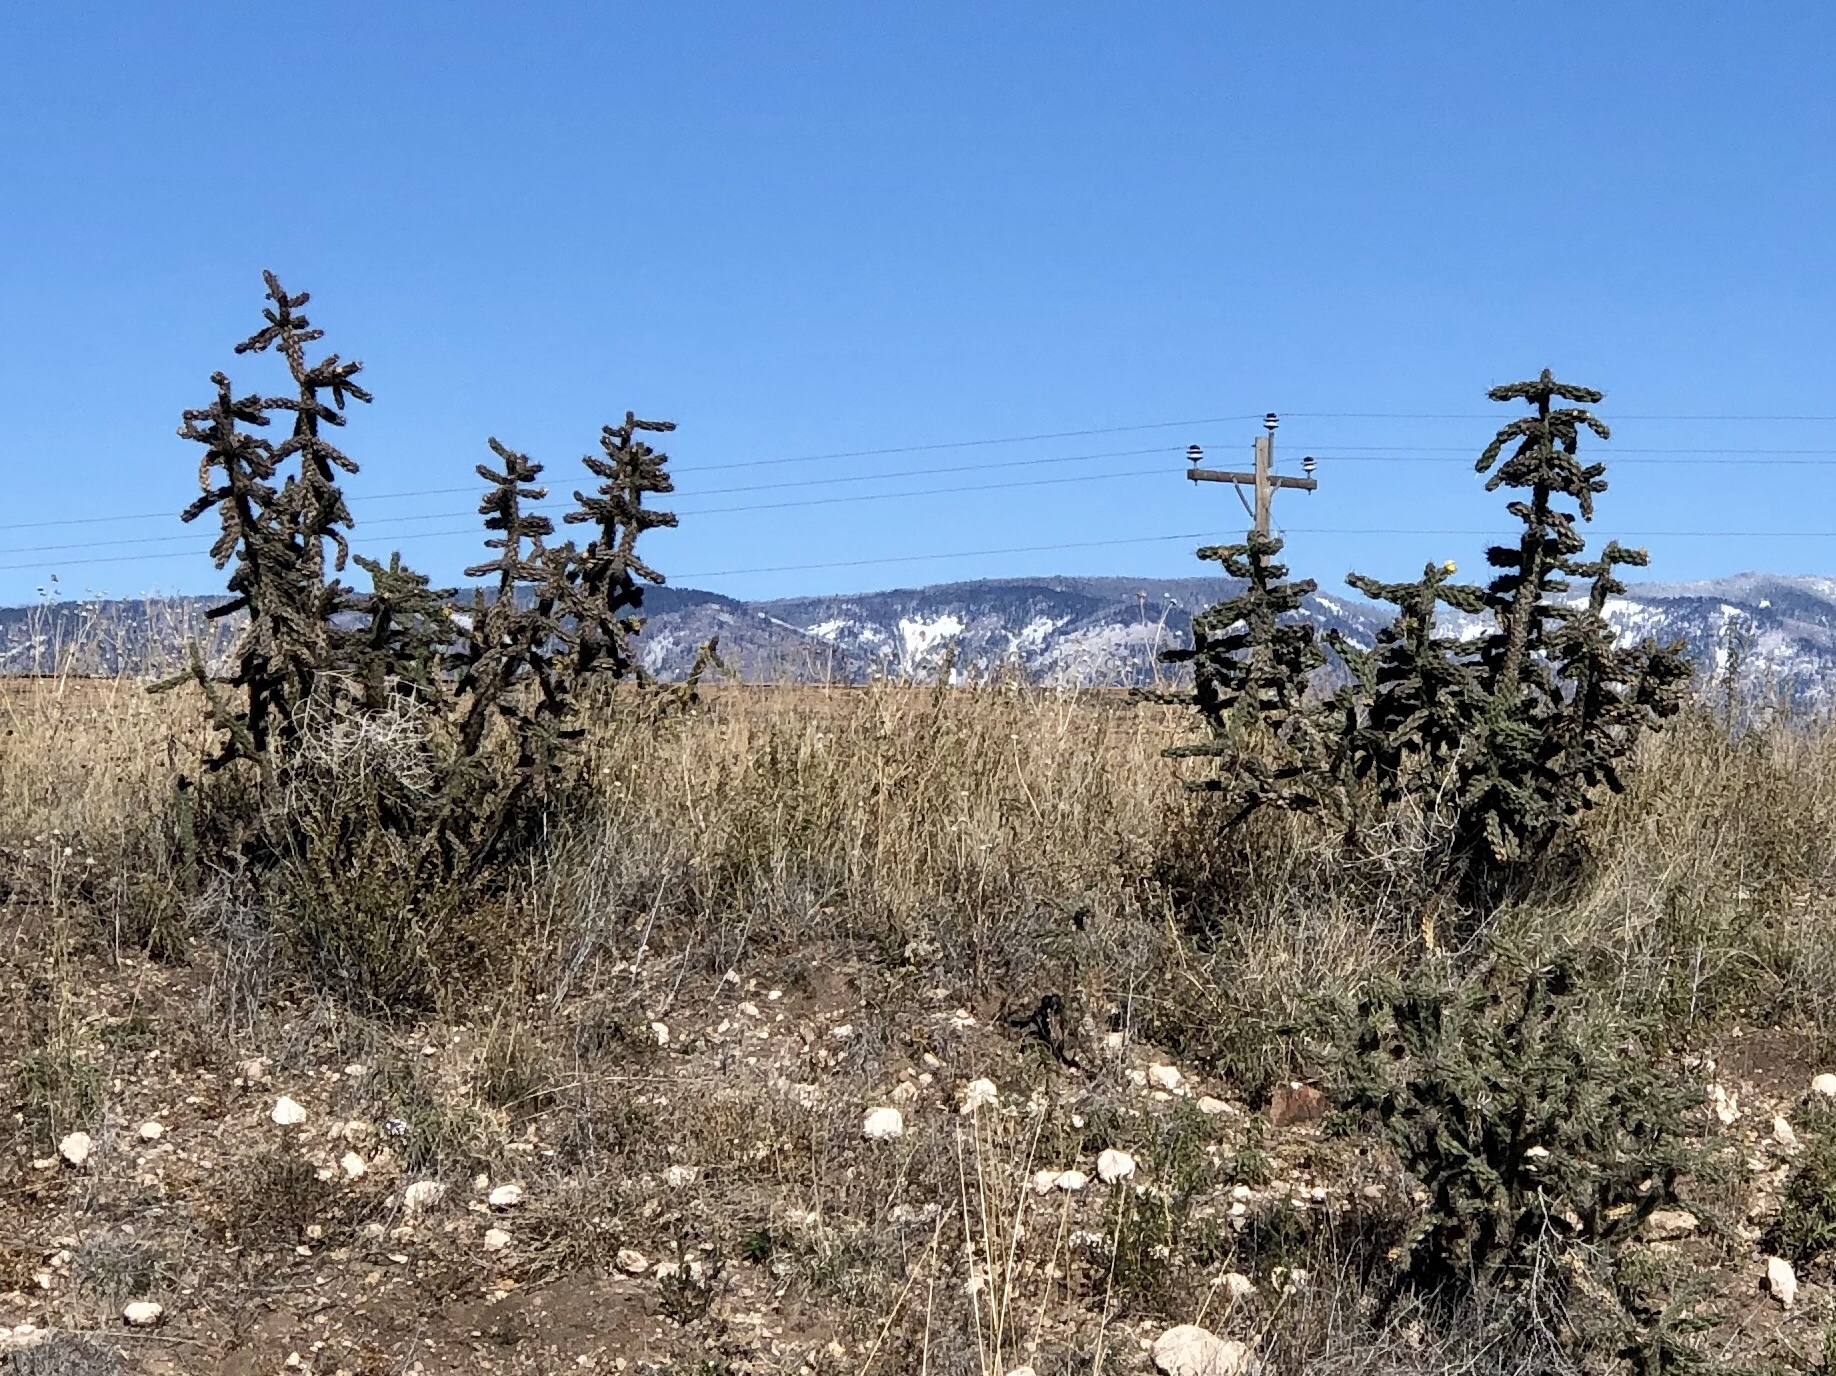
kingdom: Plantae
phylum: Tracheophyta
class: Magnoliopsida
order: Caryophyllales
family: Cactaceae
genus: Cylindropuntia
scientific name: Cylindropuntia imbricata
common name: Candelabrum cactus
